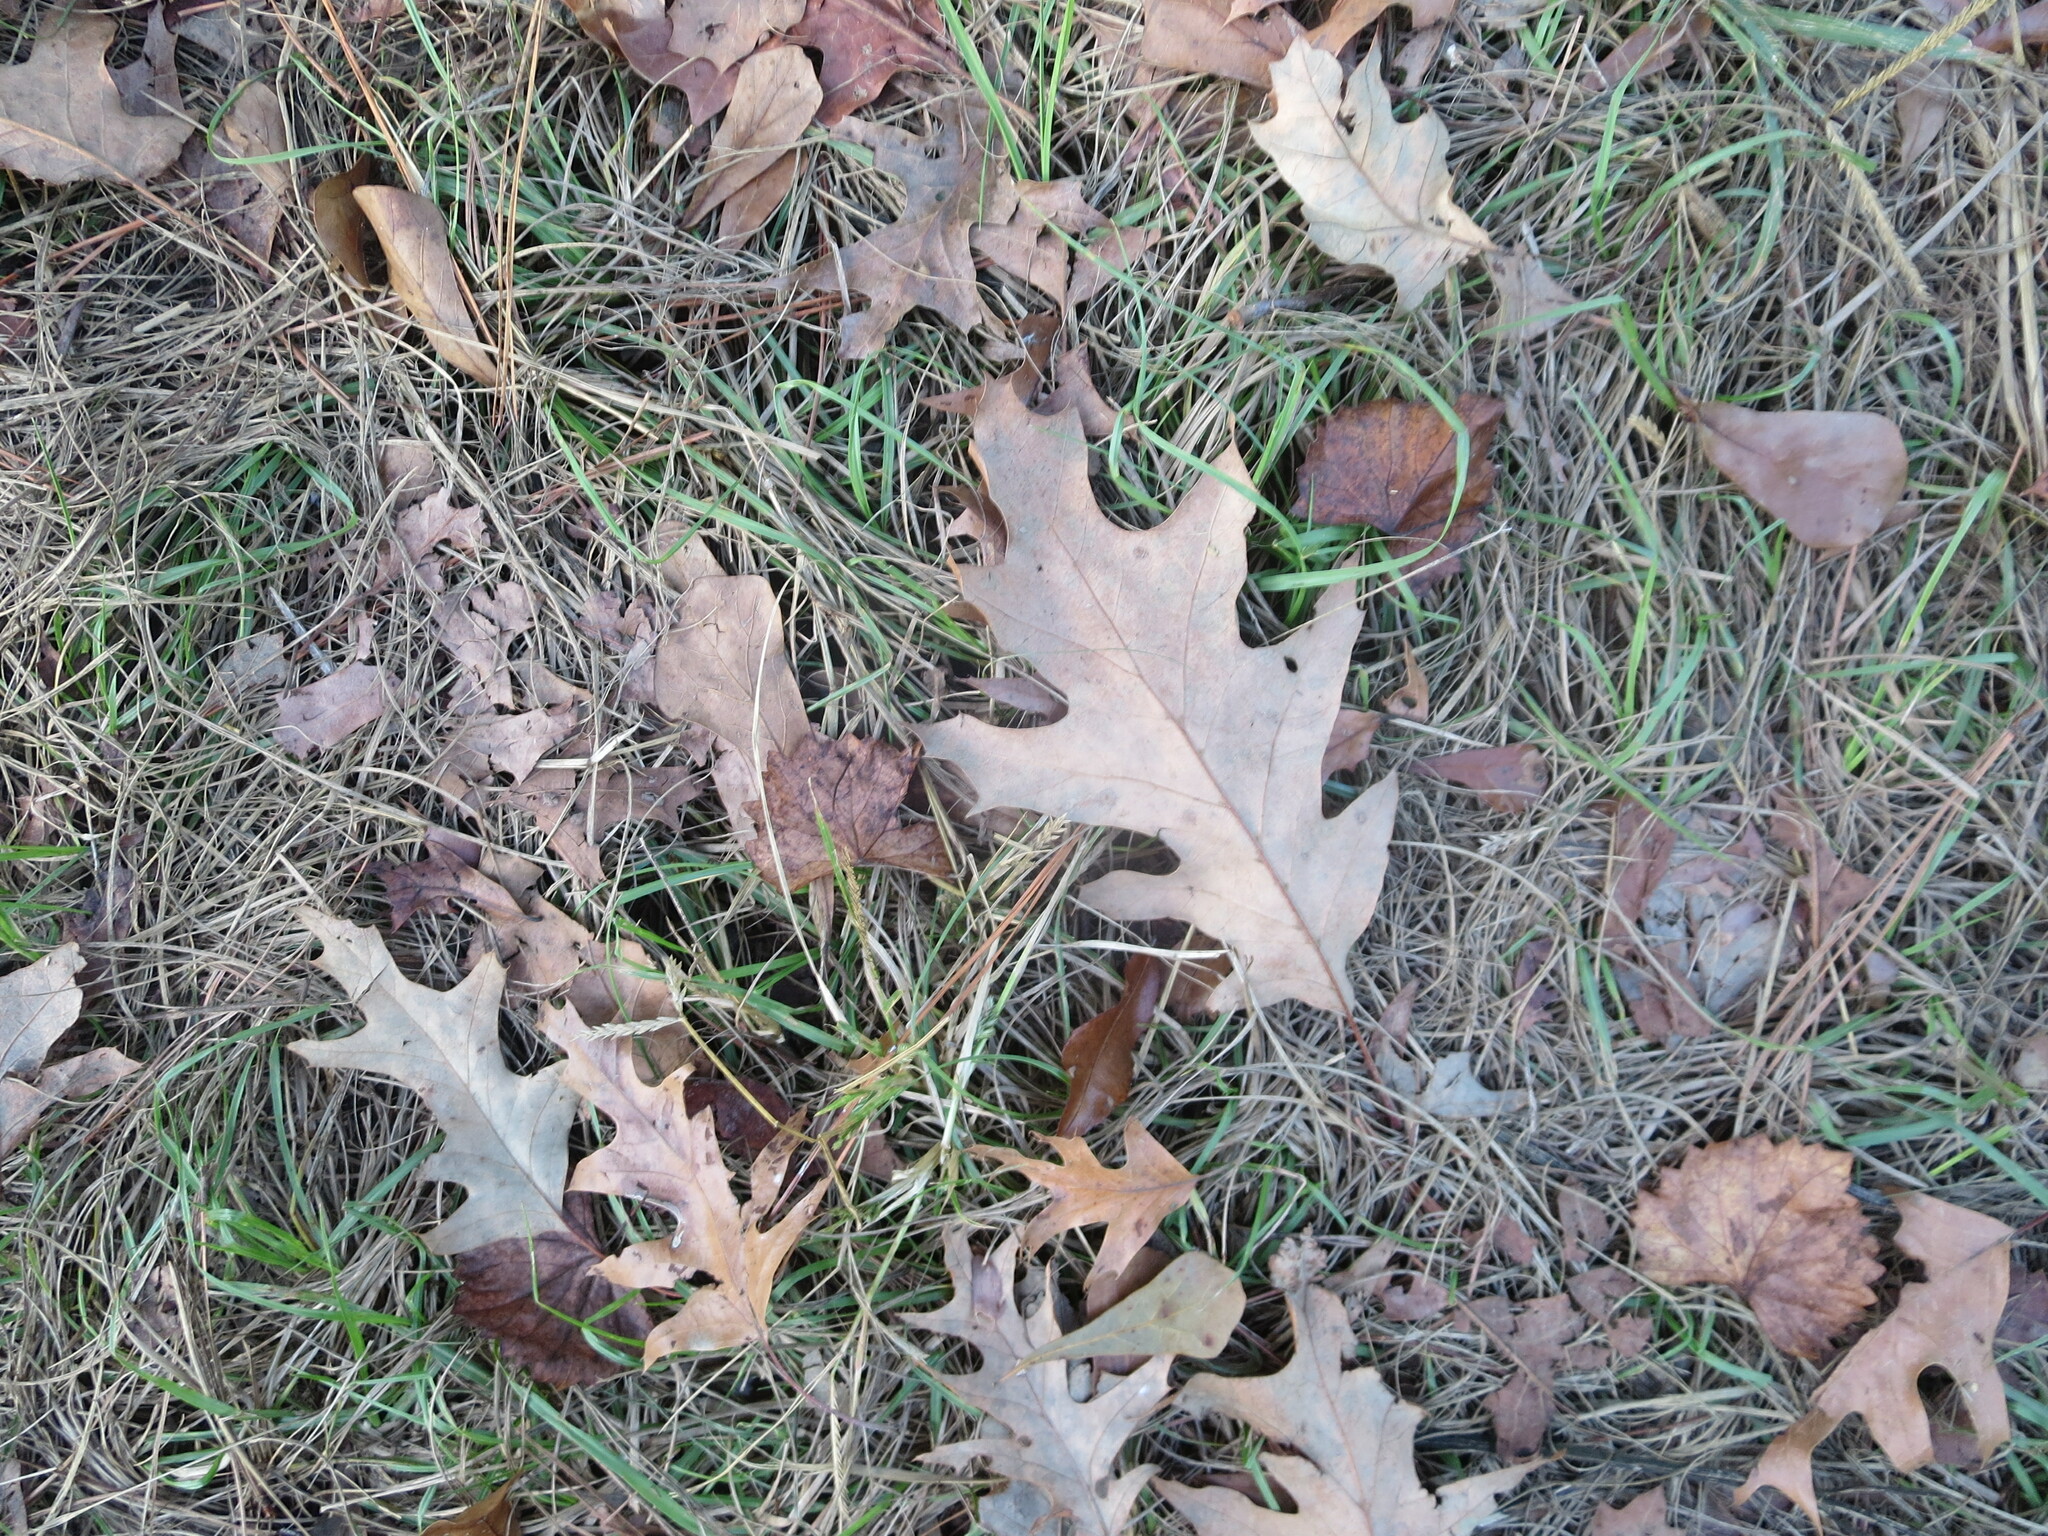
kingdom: Plantae
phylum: Tracheophyta
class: Magnoliopsida
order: Fagales
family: Fagaceae
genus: Quercus
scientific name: Quercus pagoda
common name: Cherrybark oak
